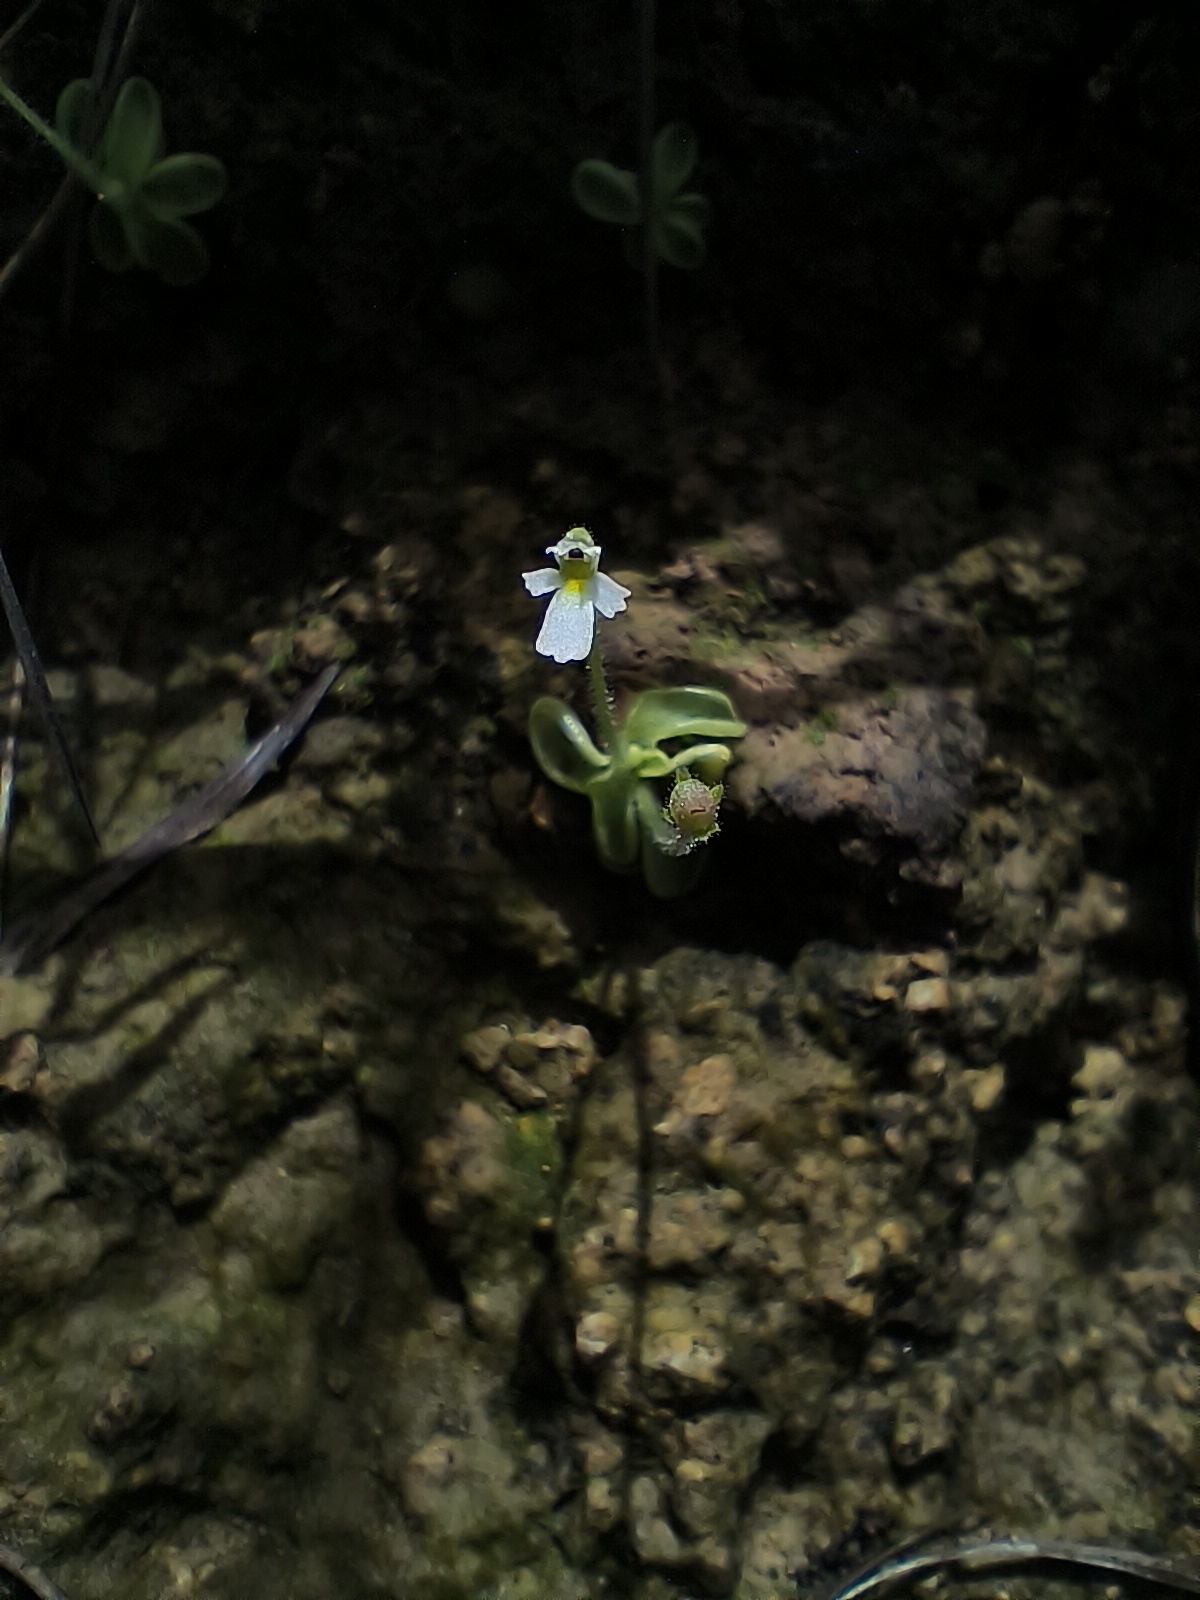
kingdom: Plantae
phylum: Tracheophyta
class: Magnoliopsida
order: Lamiales
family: Lentibulariaceae
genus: Pinguicula
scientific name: Pinguicula crenatiloba
